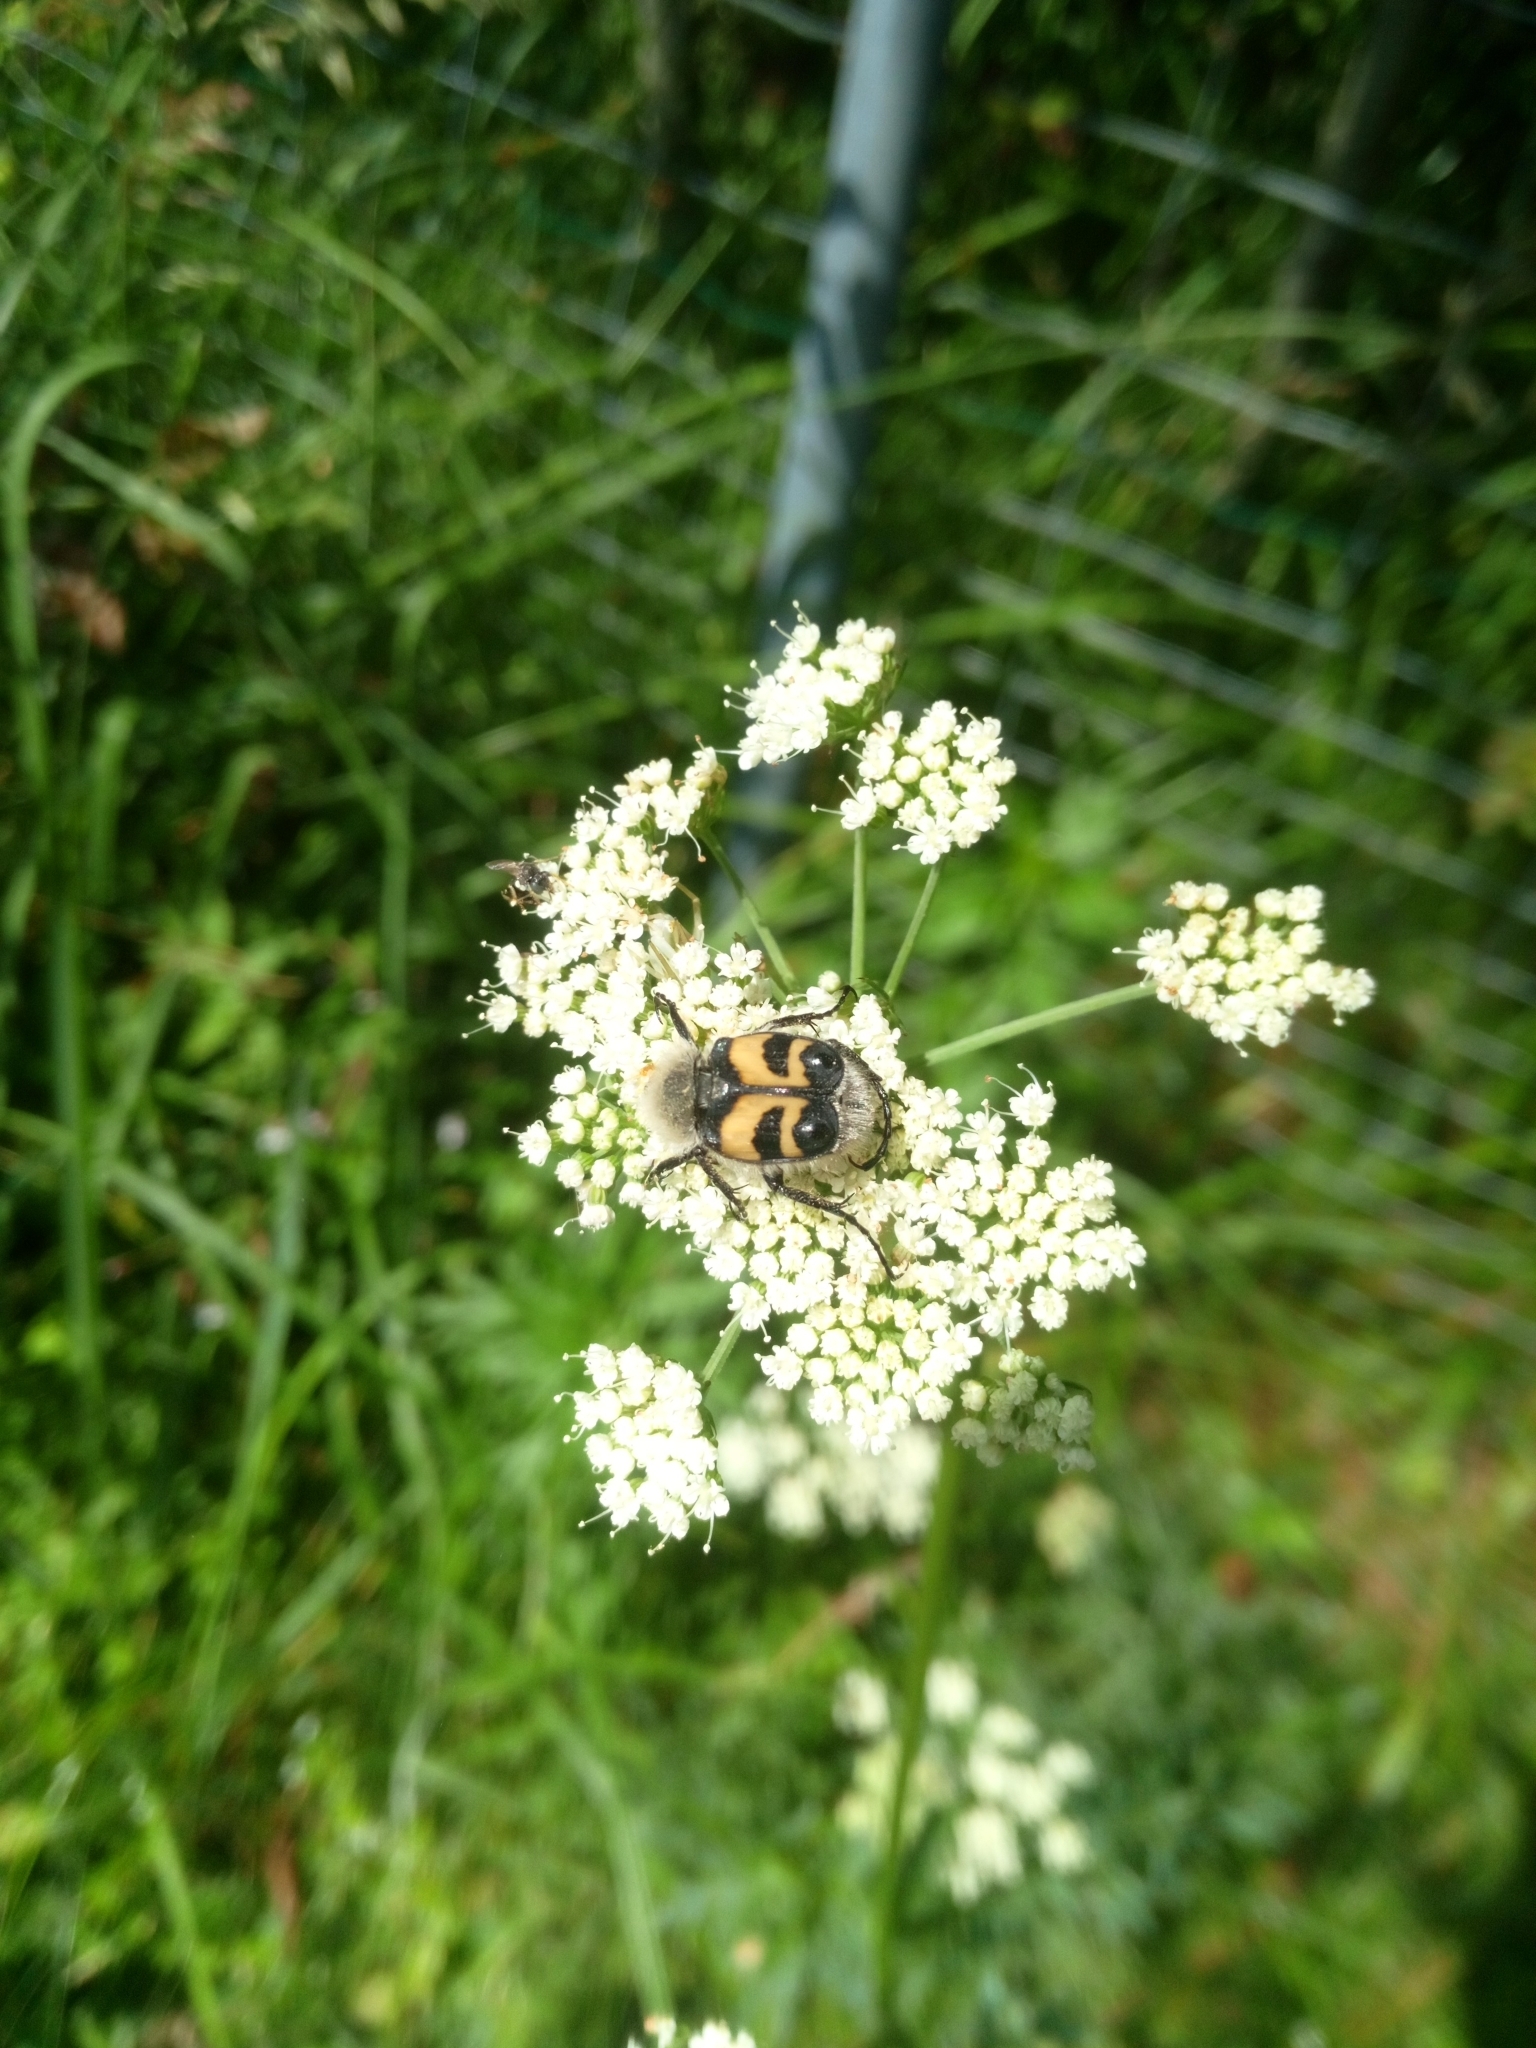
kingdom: Animalia
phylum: Arthropoda
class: Insecta
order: Coleoptera
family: Scarabaeidae
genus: Trichius
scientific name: Trichius fasciatus
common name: Bee beetle
